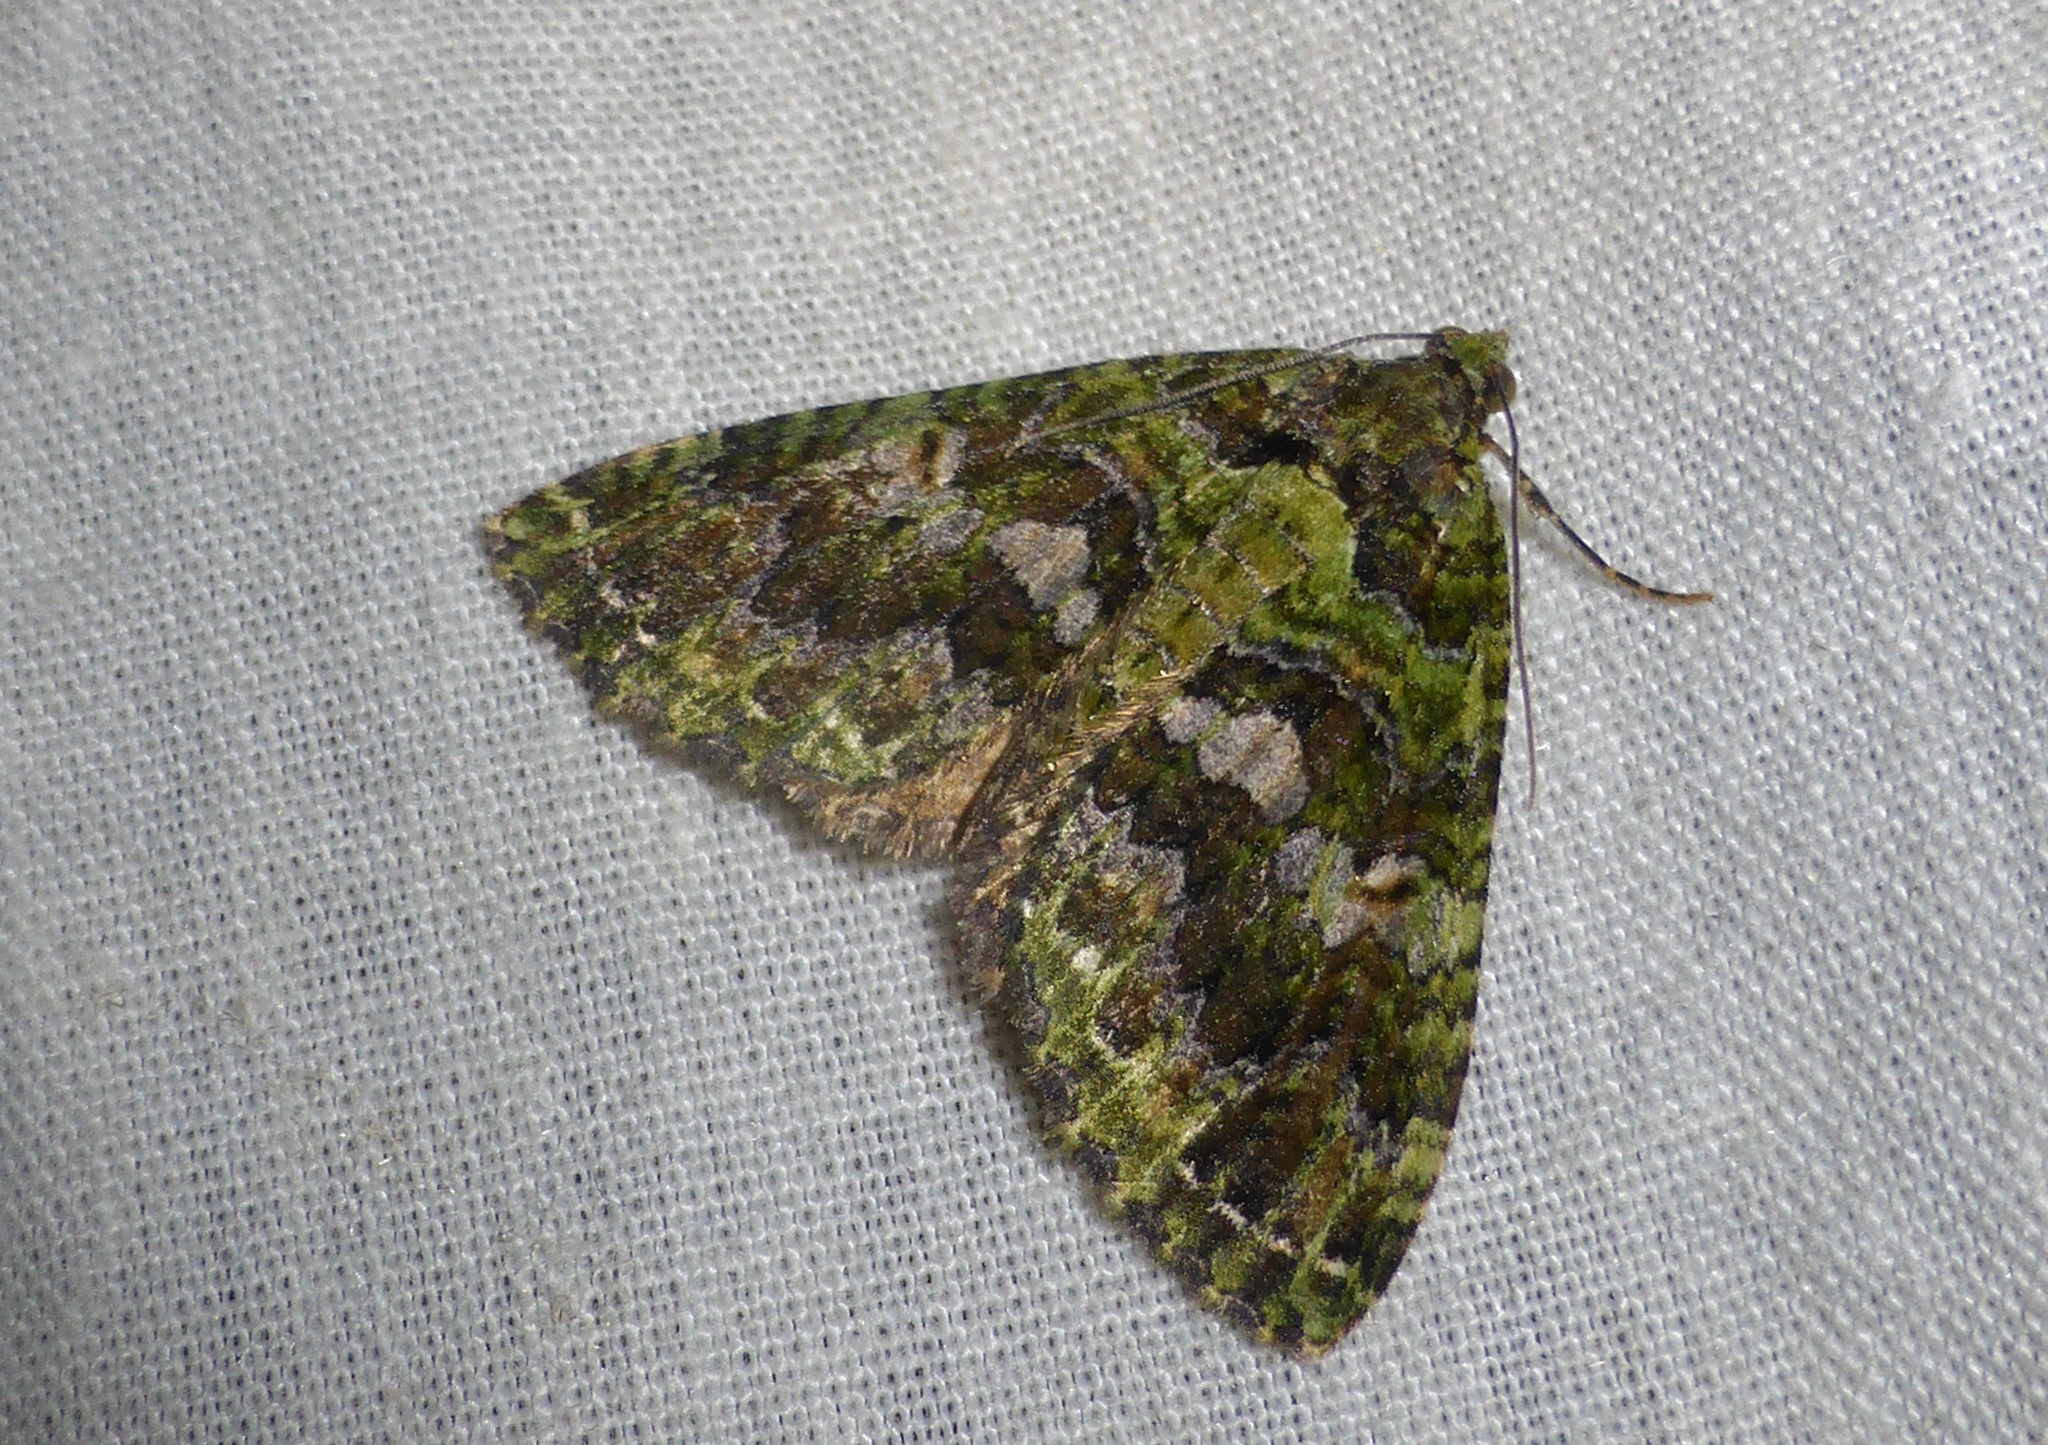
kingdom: Animalia
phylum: Arthropoda
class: Insecta
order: Lepidoptera
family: Geometridae
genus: Austrocidaria
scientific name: Austrocidaria similata
